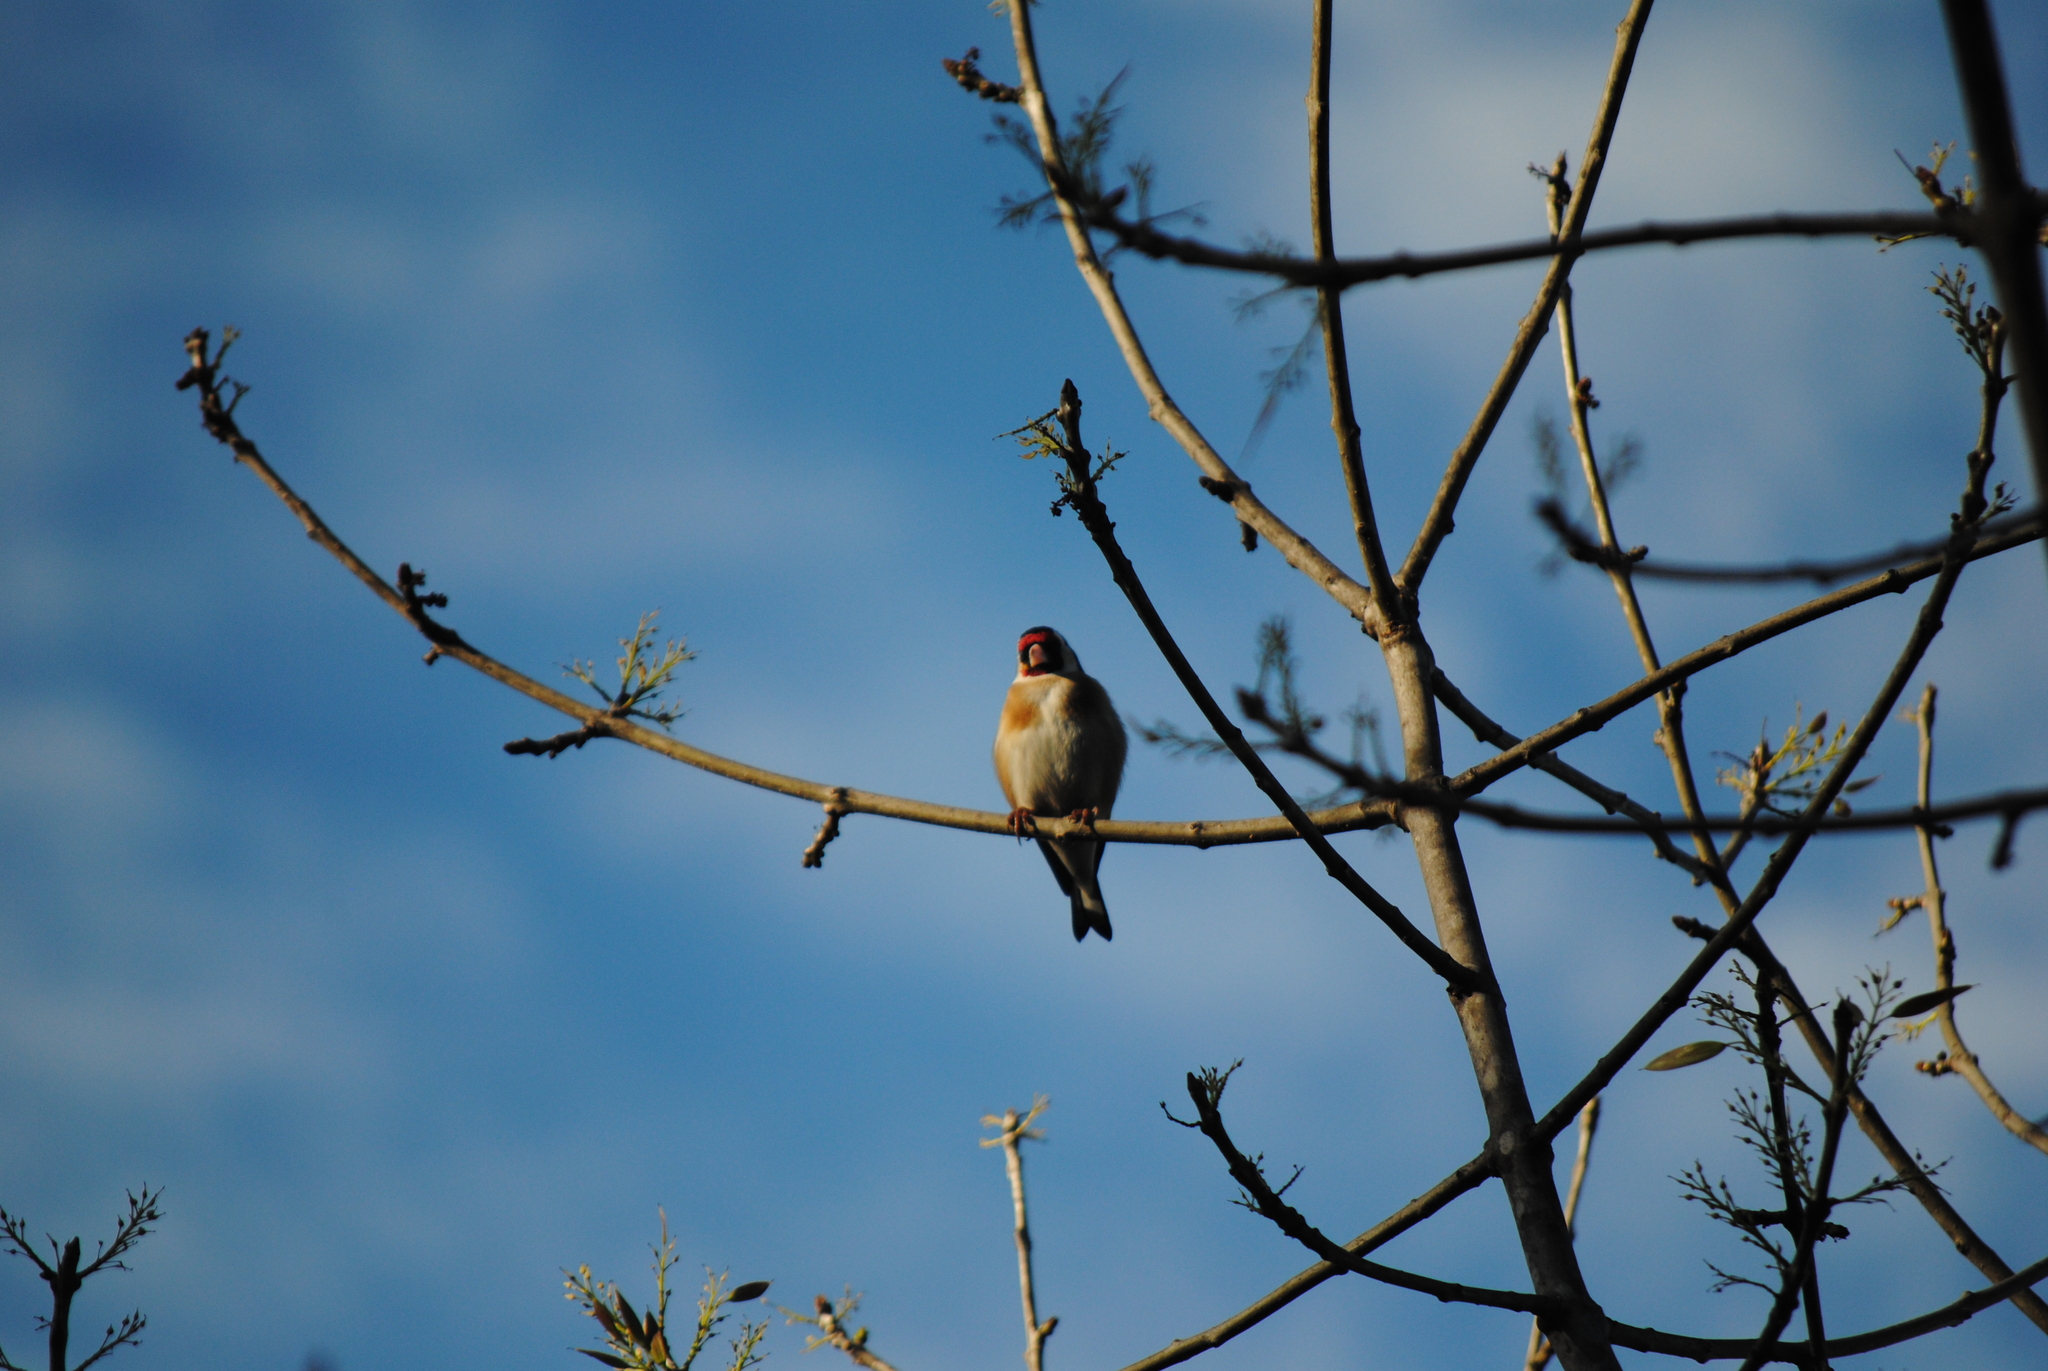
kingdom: Animalia
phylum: Chordata
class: Aves
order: Passeriformes
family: Fringillidae
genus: Carduelis
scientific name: Carduelis carduelis
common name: European goldfinch
